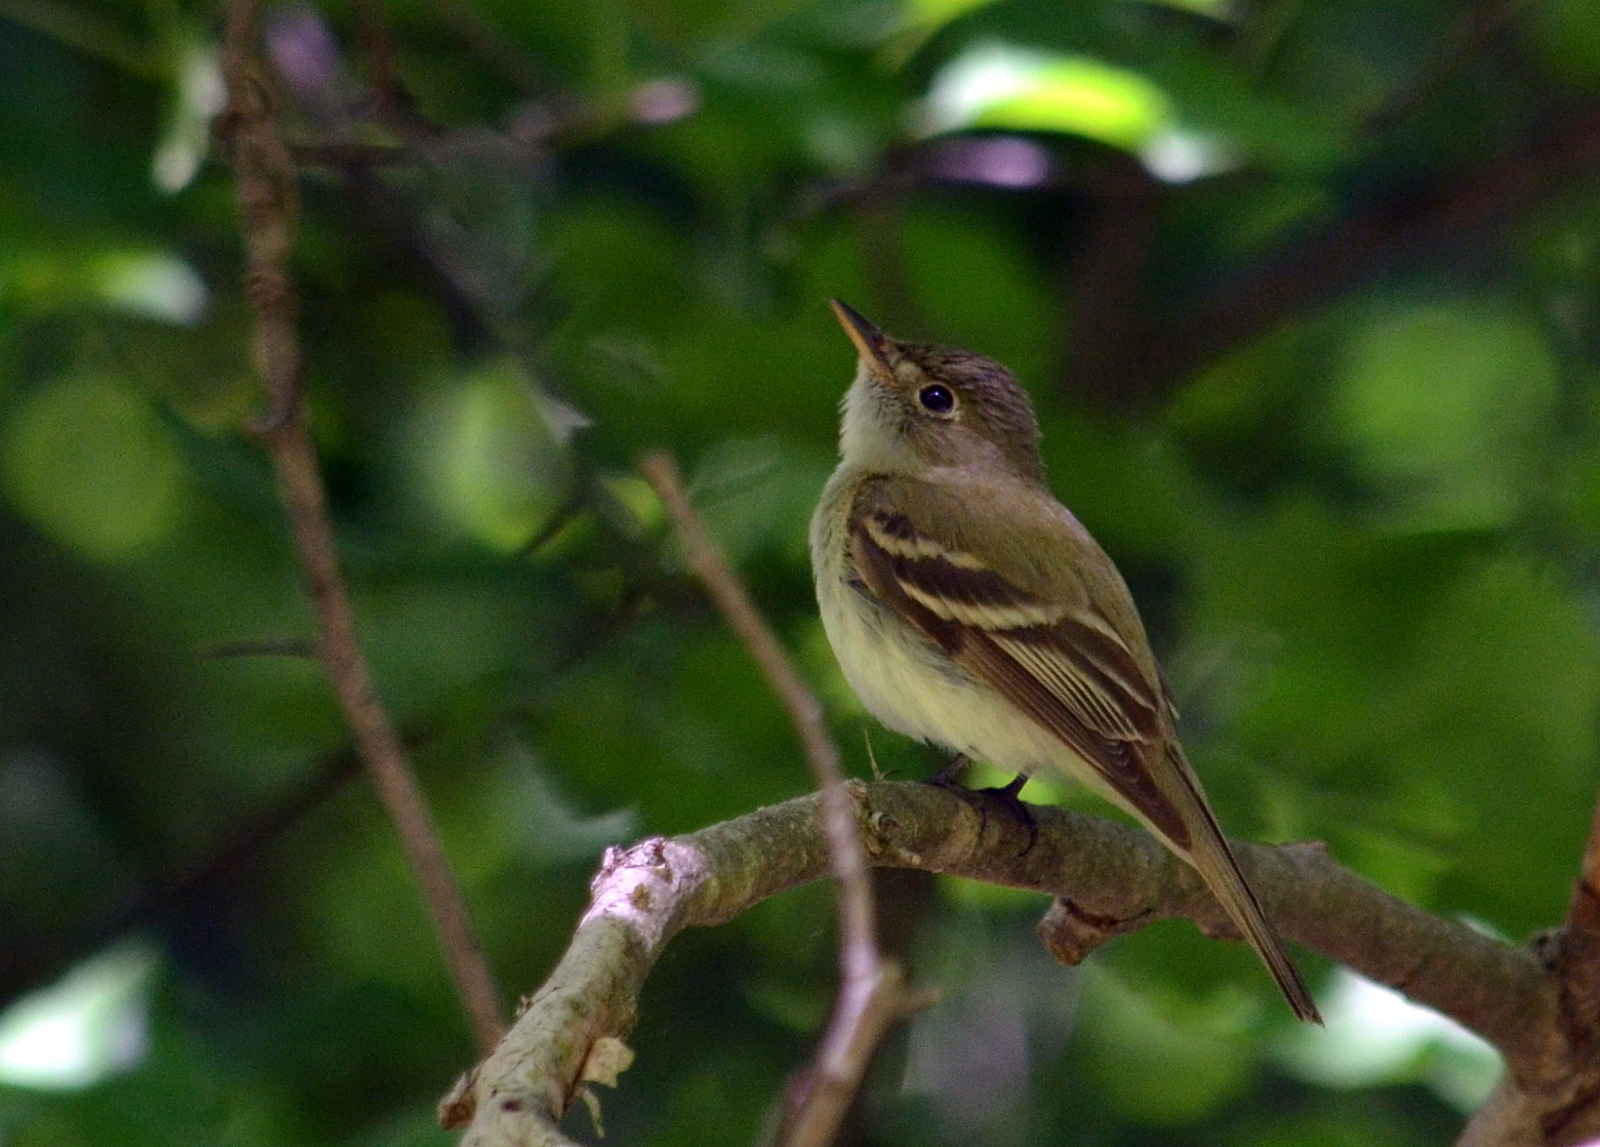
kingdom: Animalia
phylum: Chordata
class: Aves
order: Passeriformes
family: Tyrannidae
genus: Empidonax
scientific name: Empidonax virescens
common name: Acadian flycatcher
